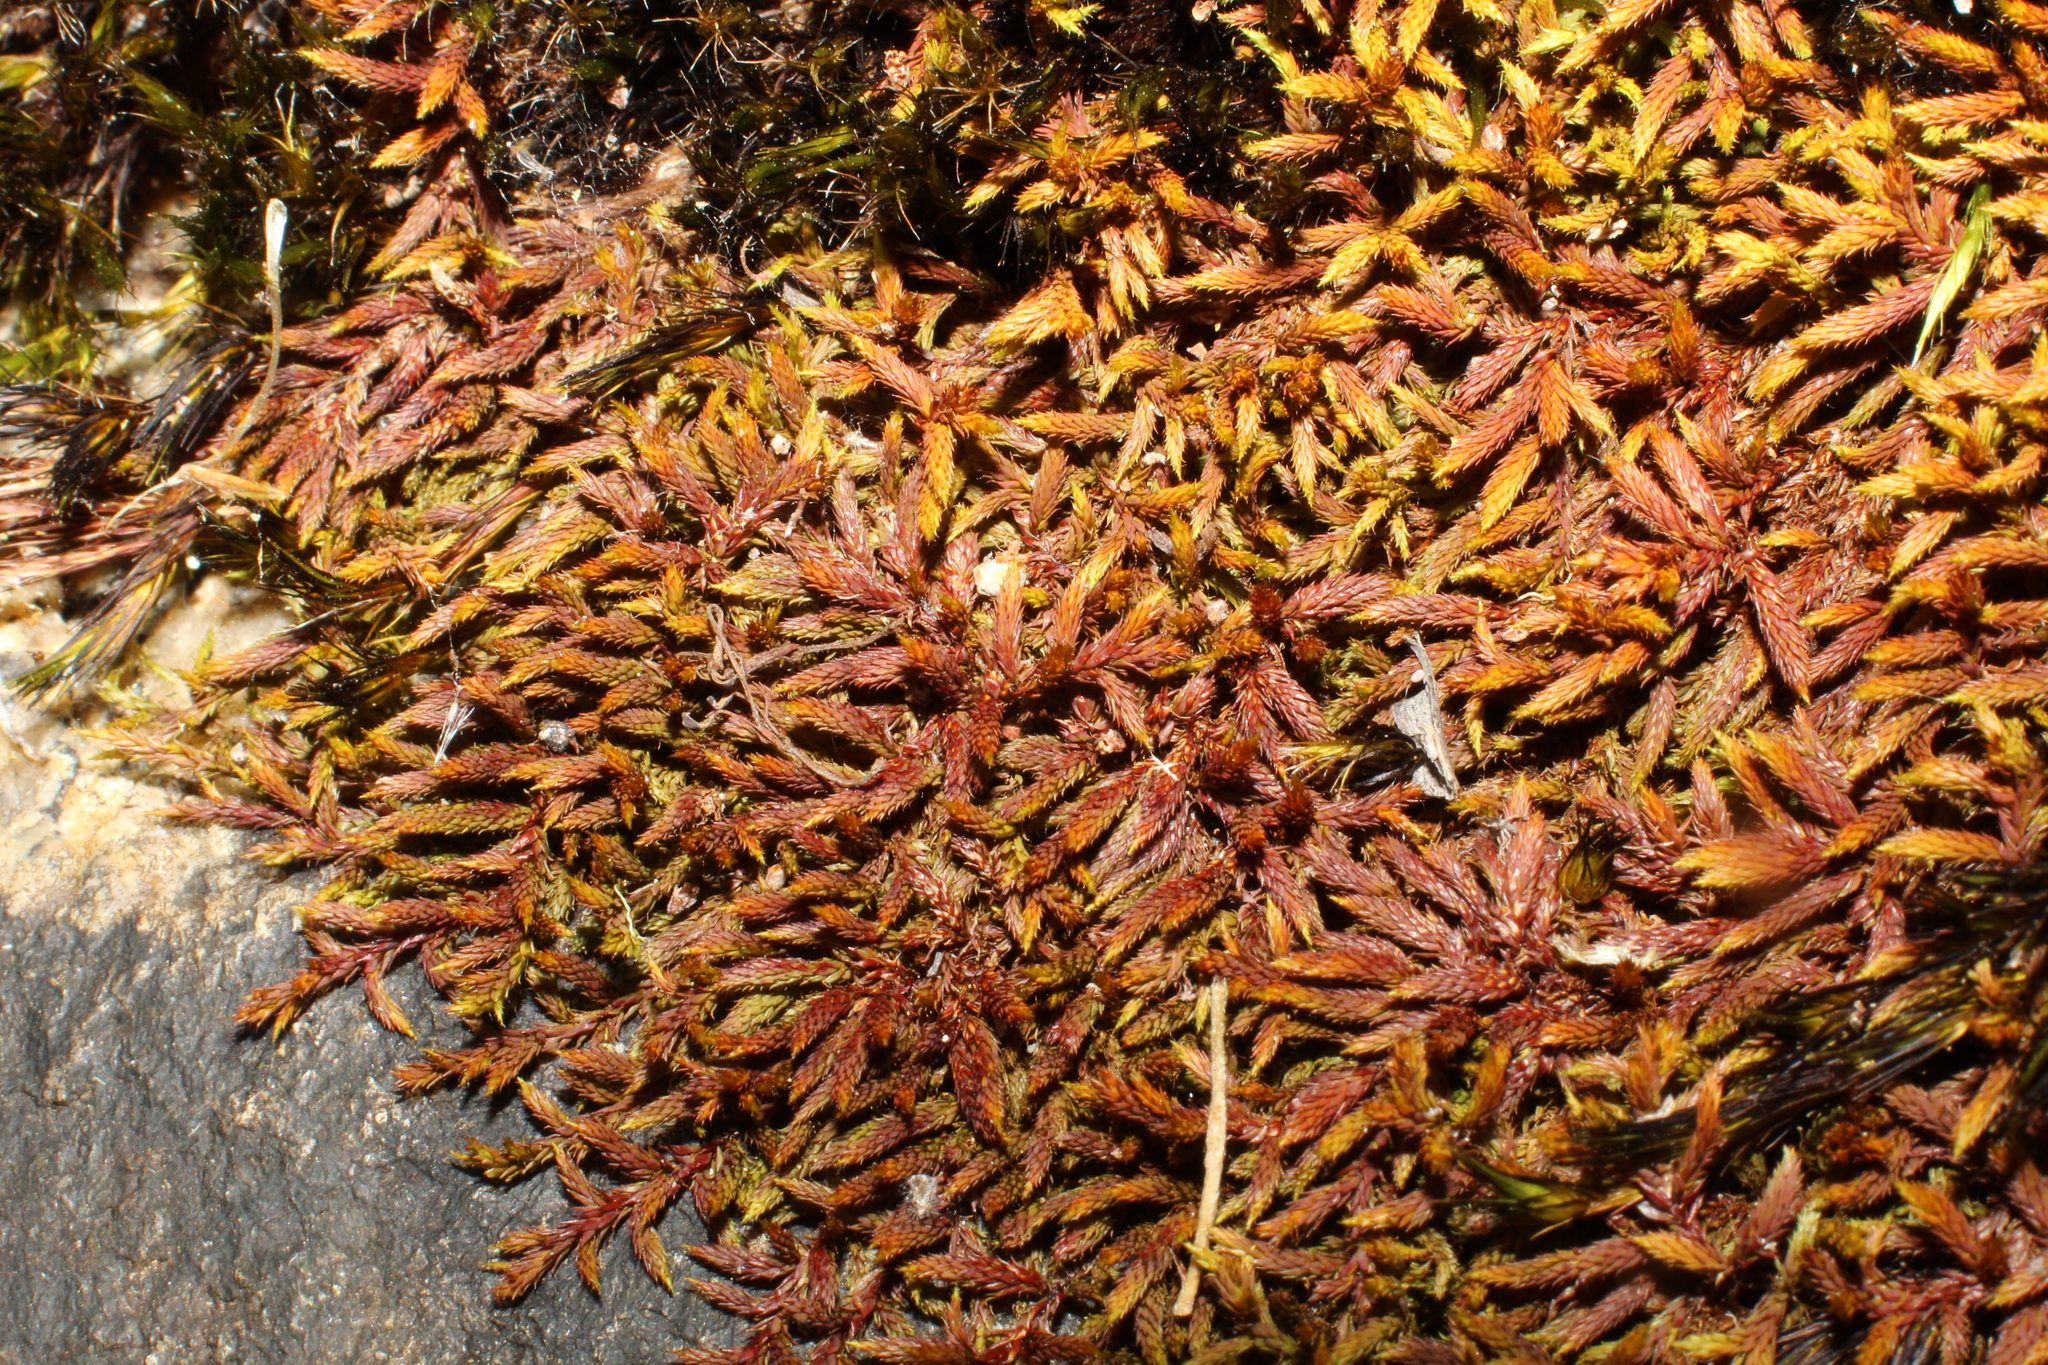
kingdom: Plantae
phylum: Bryophyta
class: Bryopsida
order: Hedwigiales
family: Hedwigiaceae
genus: Rhacocarpus
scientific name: Rhacocarpus purpurascens
